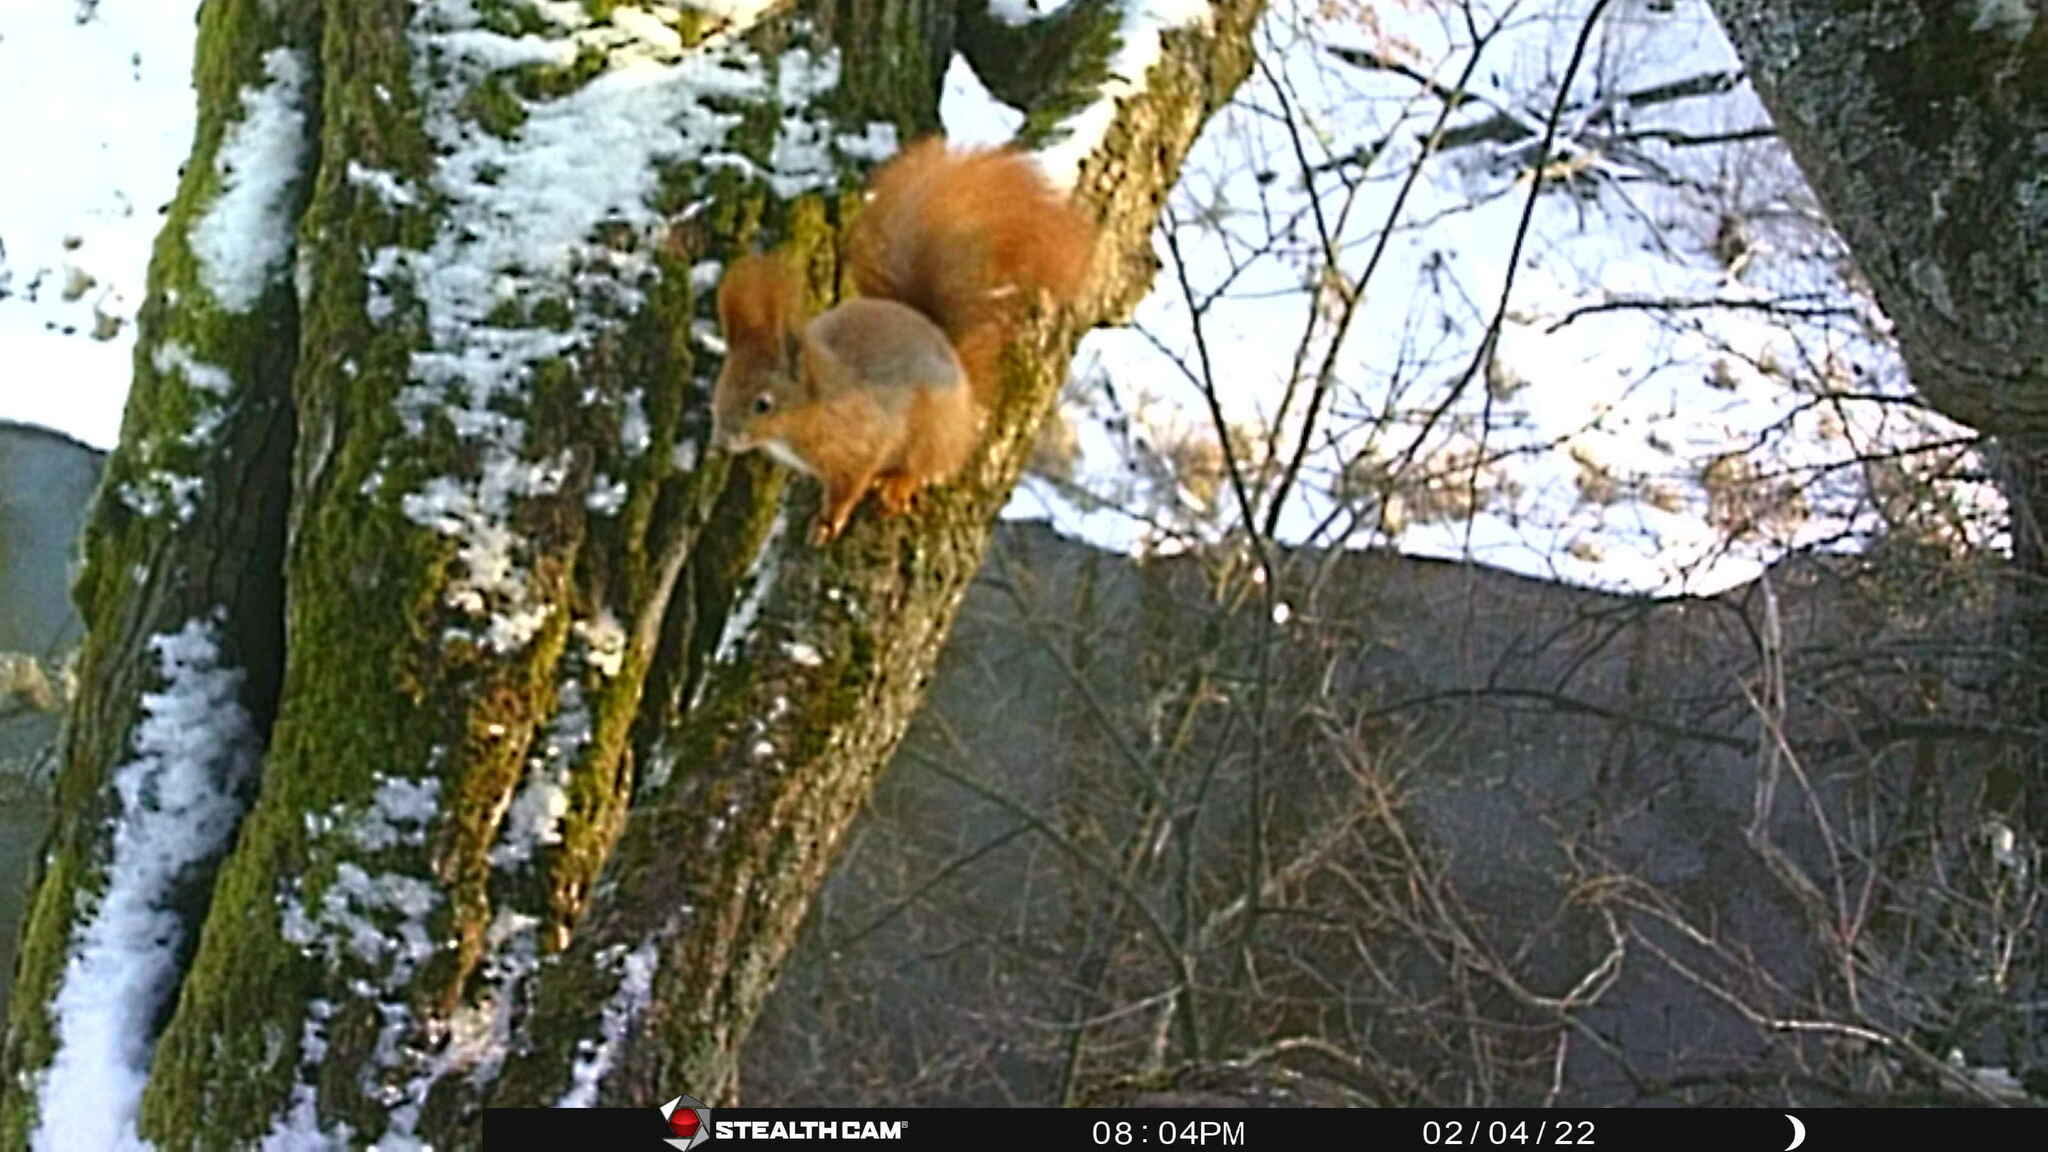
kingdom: Animalia
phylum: Chordata
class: Mammalia
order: Rodentia
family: Sciuridae
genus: Sciurus
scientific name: Sciurus vulgaris
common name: Eurasian red squirrel
